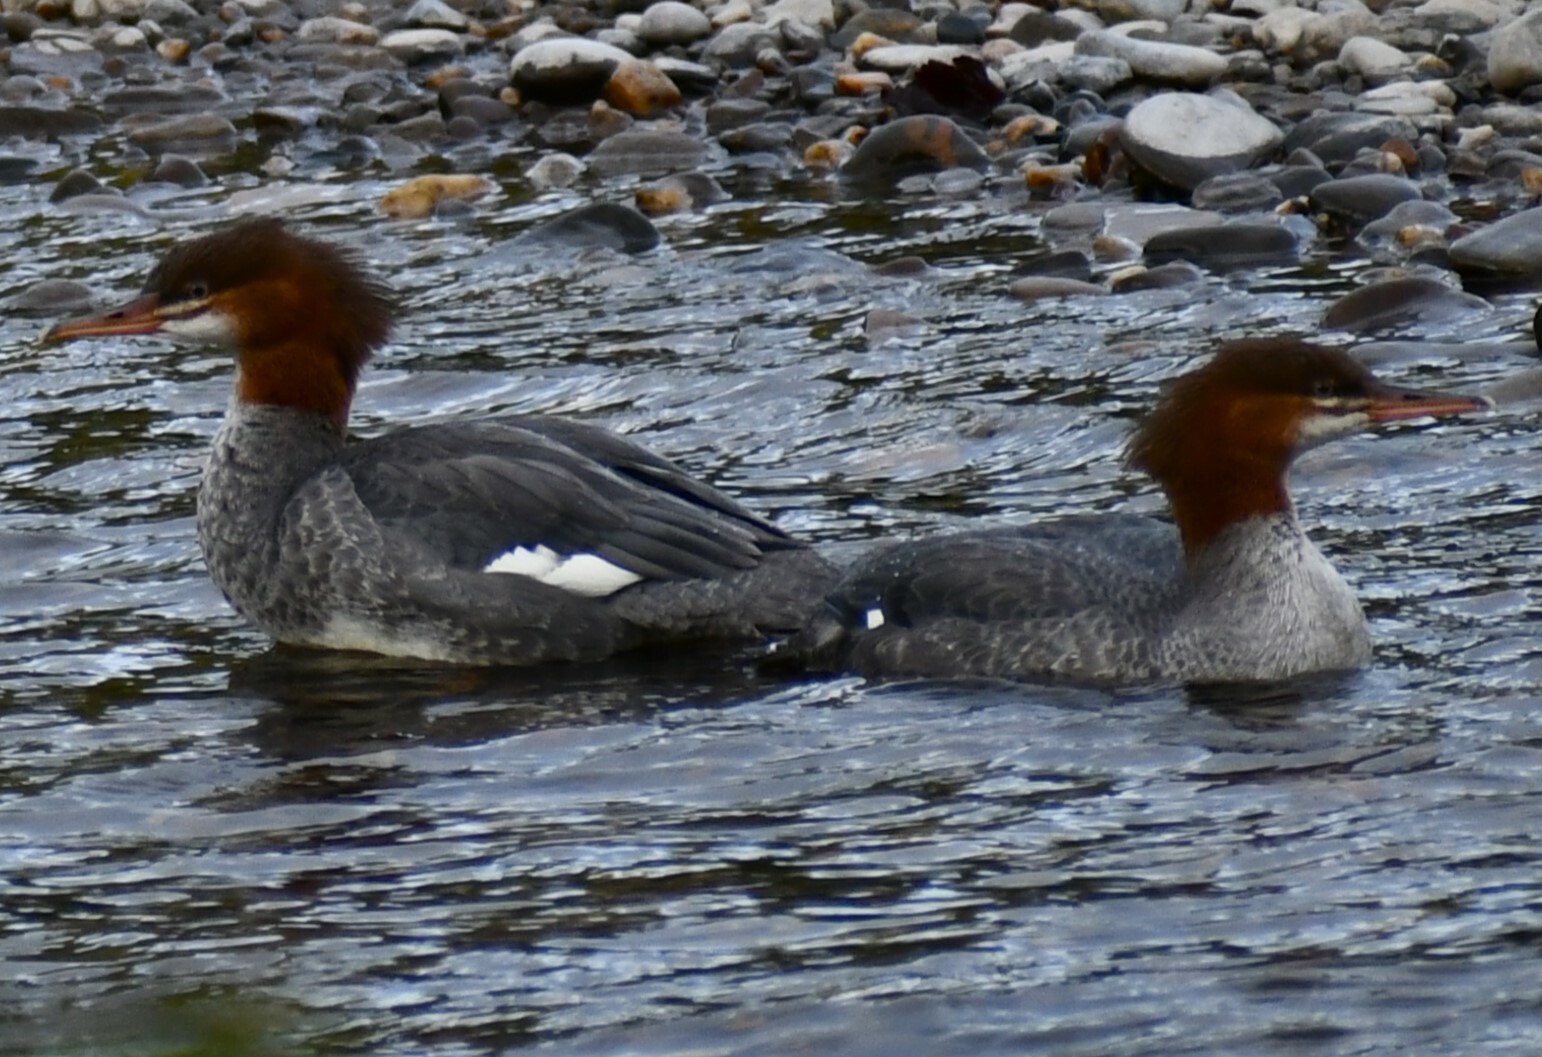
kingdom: Animalia
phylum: Chordata
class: Aves
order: Anseriformes
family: Anatidae
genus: Mergus
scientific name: Mergus merganser
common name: Common merganser
